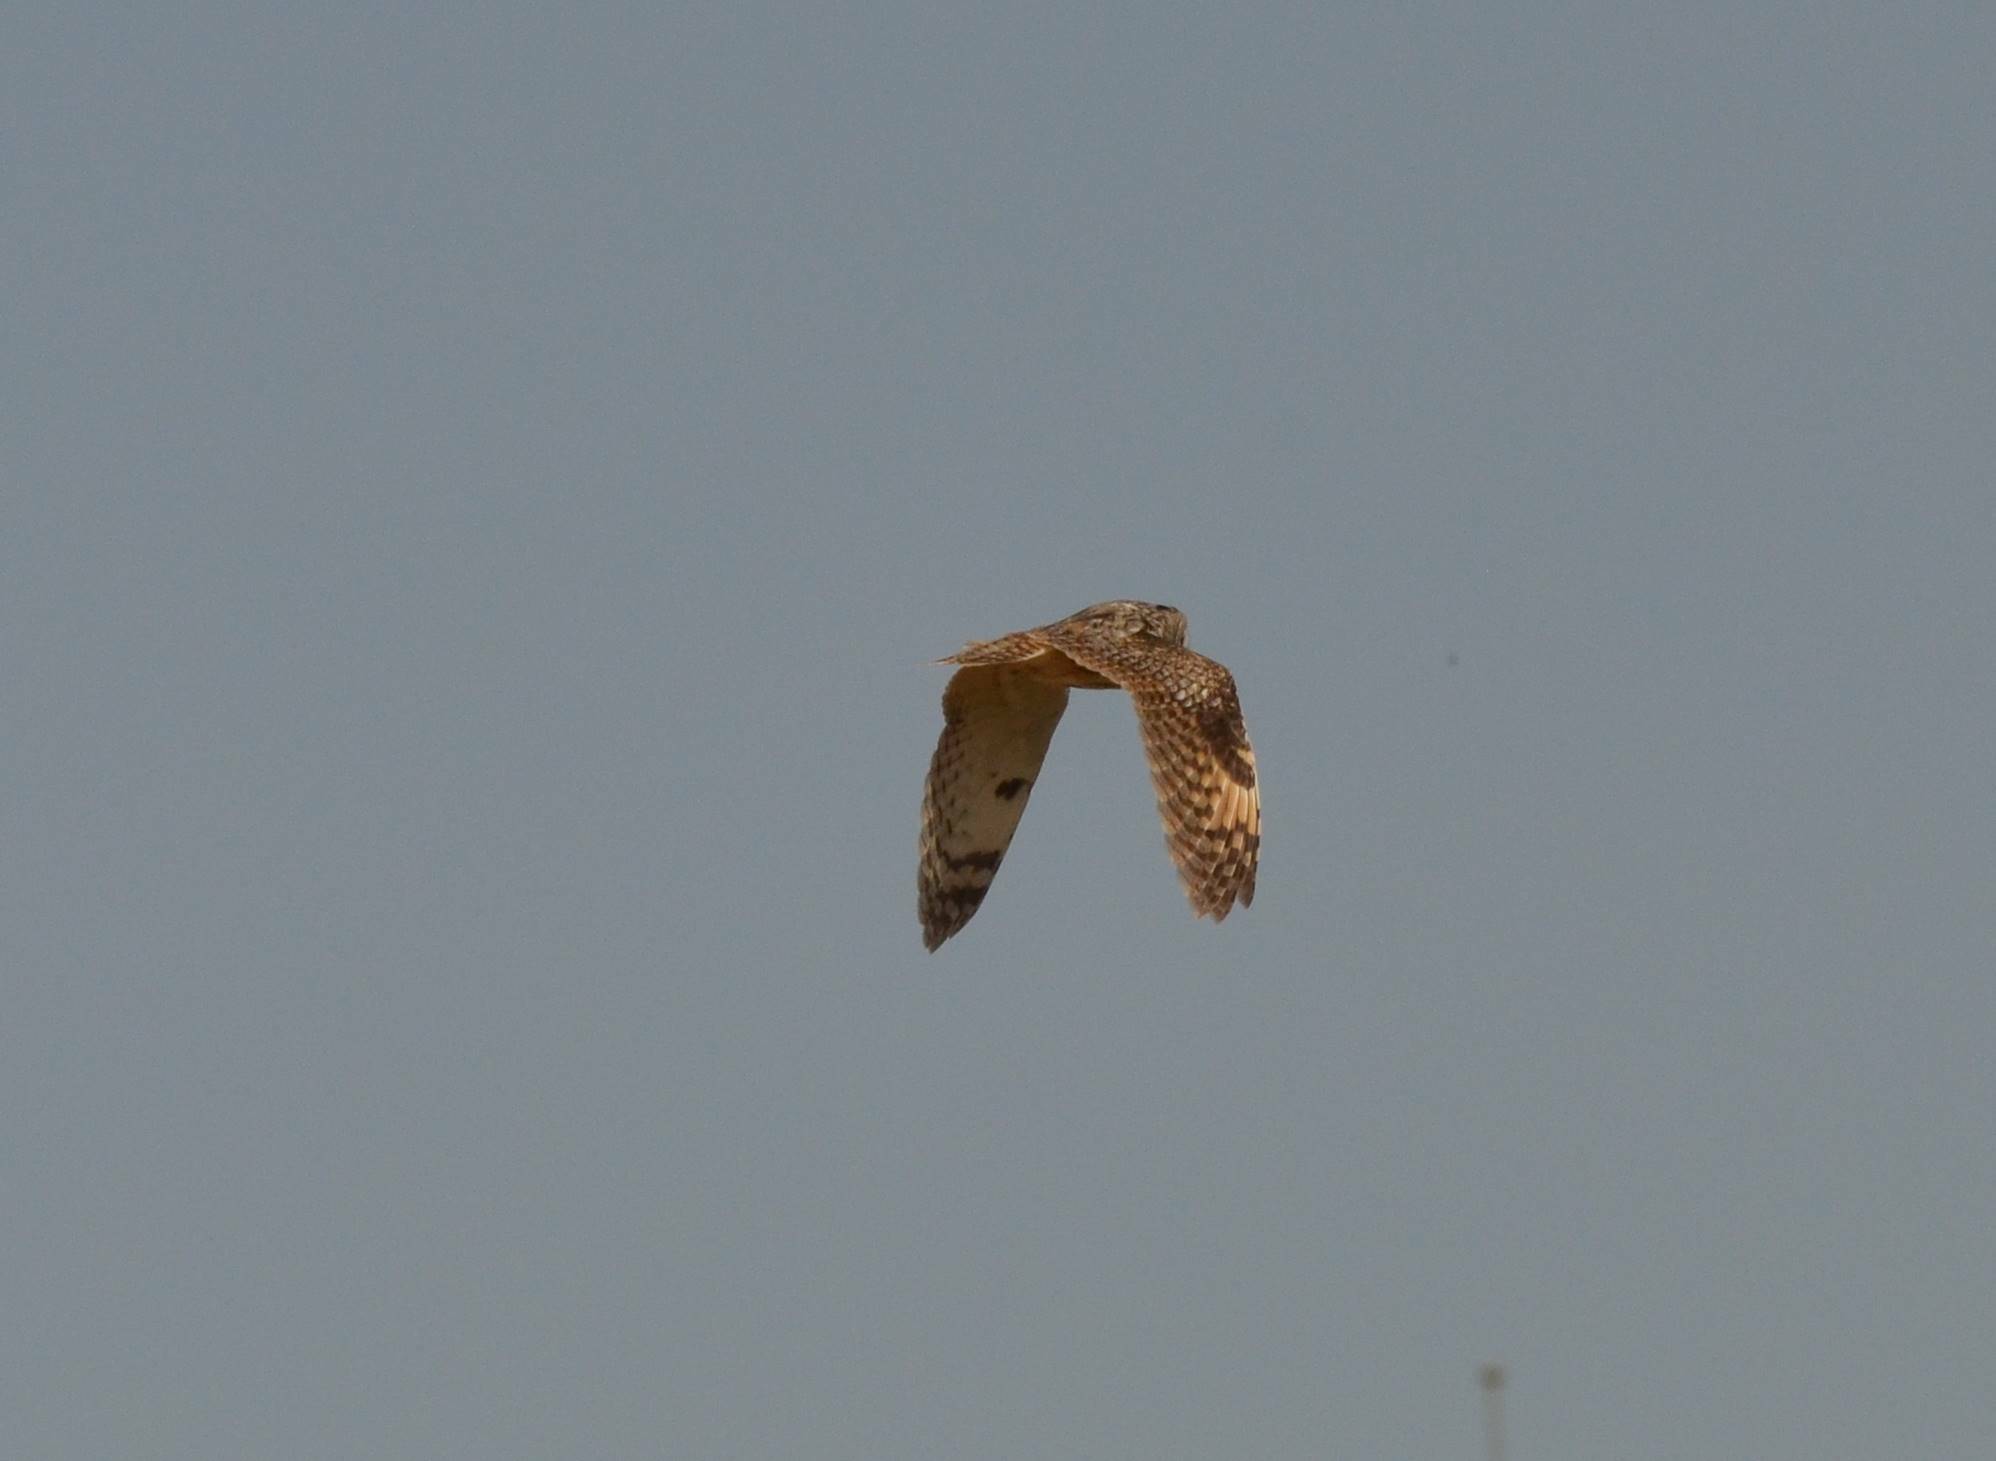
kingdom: Animalia
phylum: Chordata
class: Aves
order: Strigiformes
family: Strigidae
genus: Asio
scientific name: Asio otus
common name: Long-eared owl
